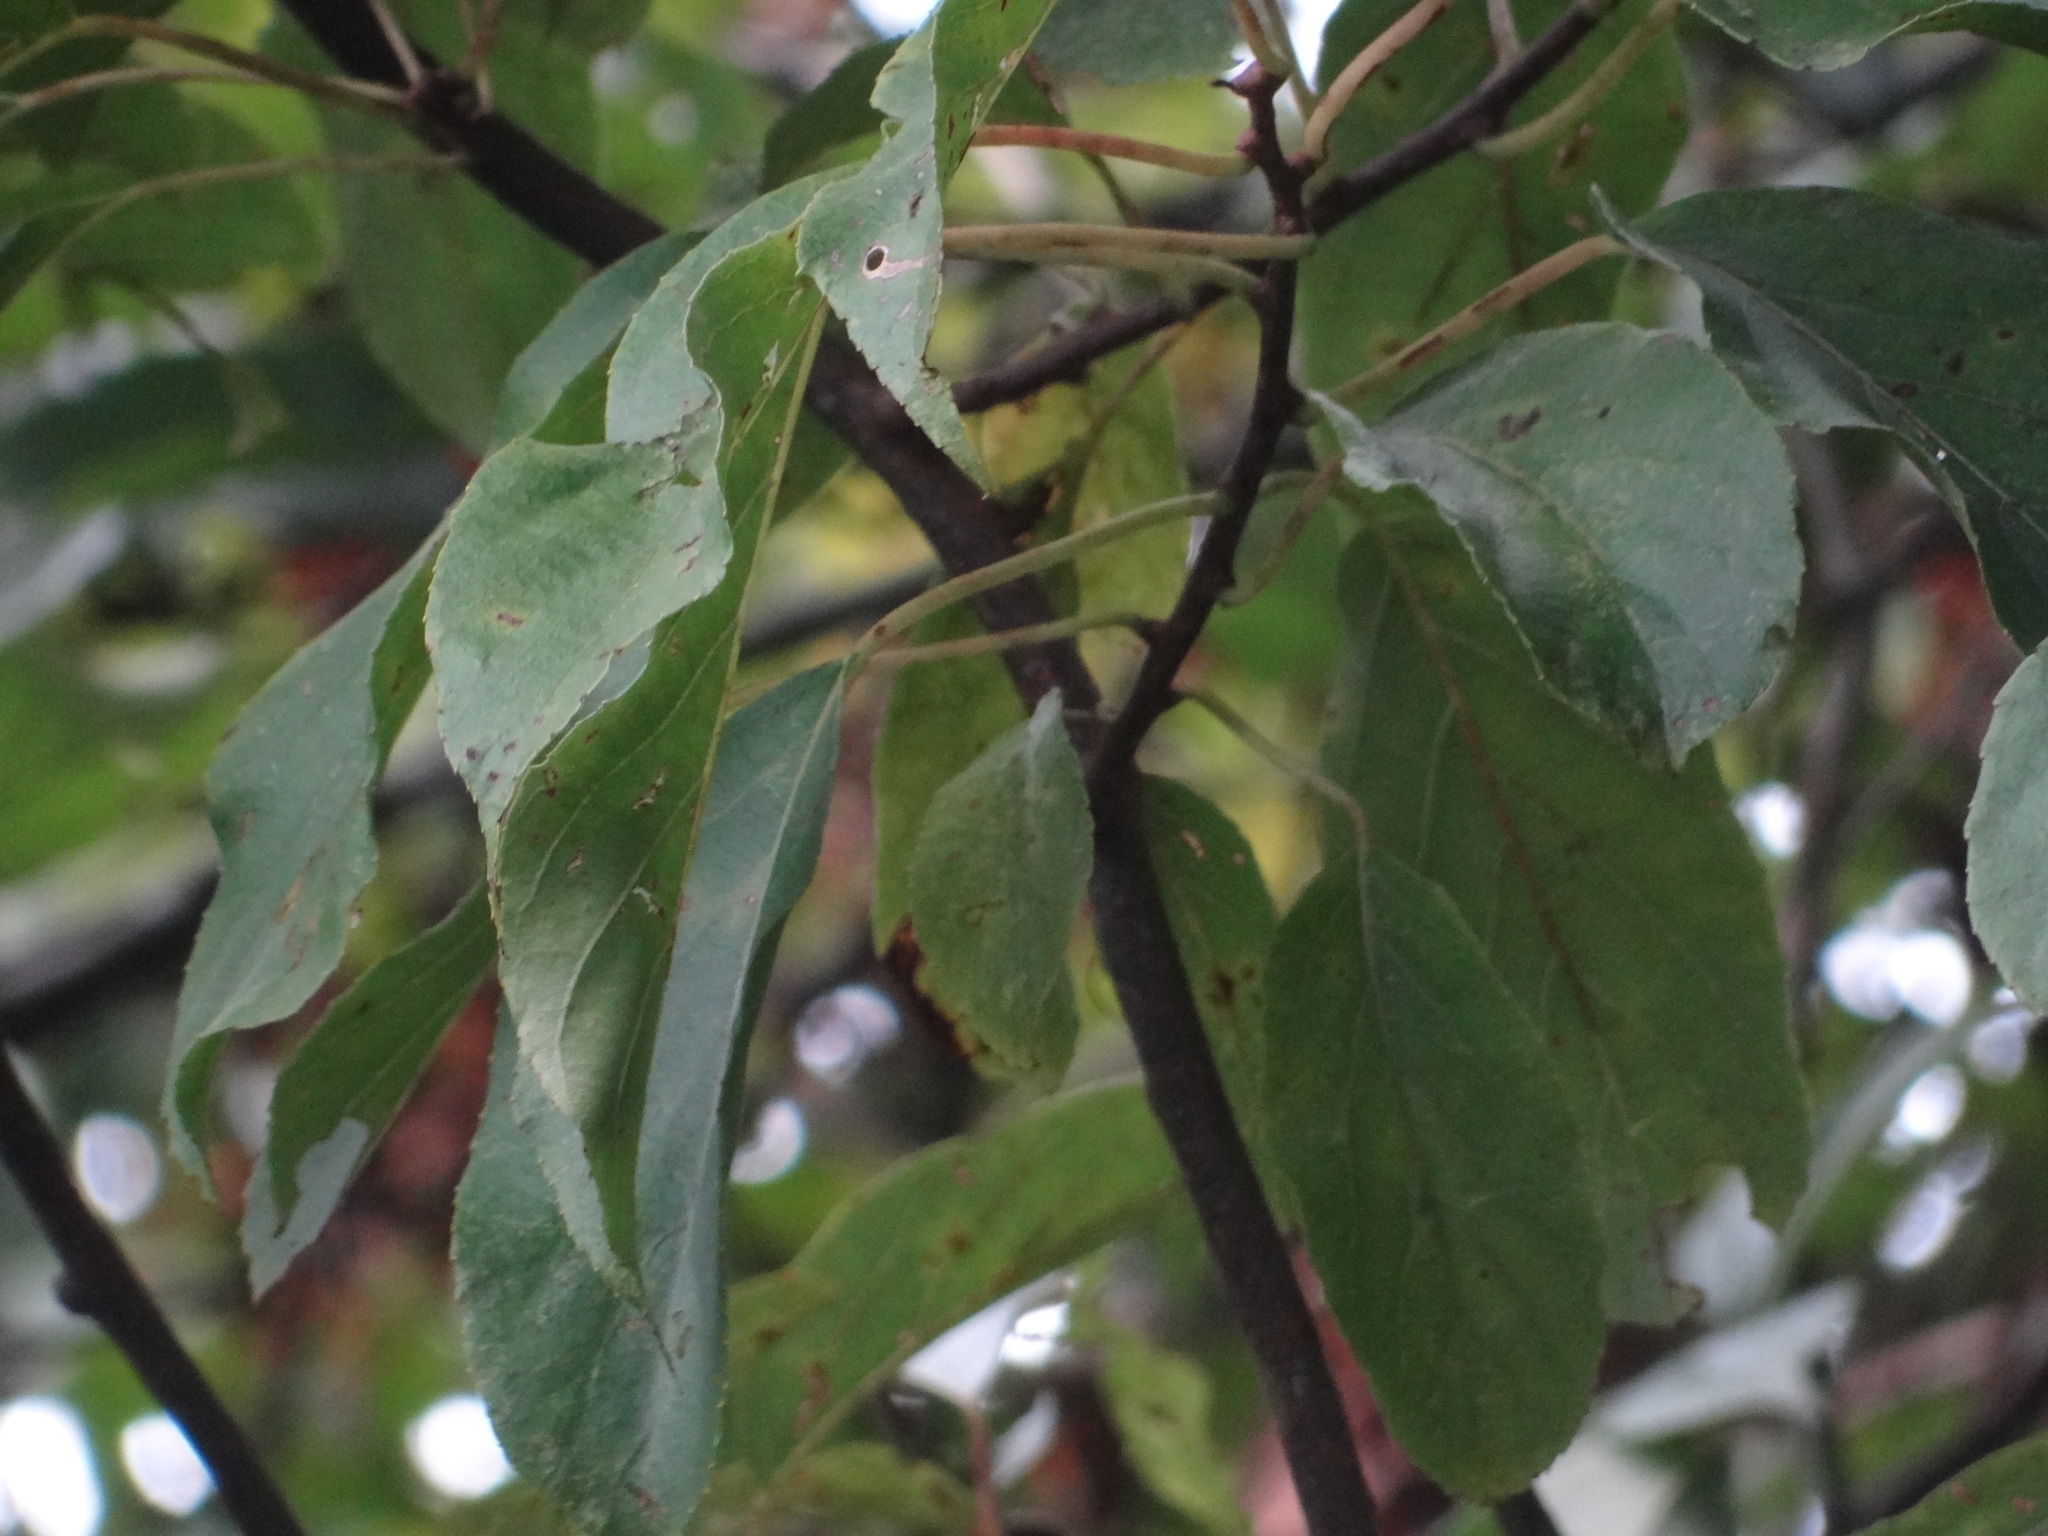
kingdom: Plantae
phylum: Tracheophyta
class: Magnoliopsida
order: Ericales
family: Actinidiaceae
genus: Actinidia
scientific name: Actinidia rufa
